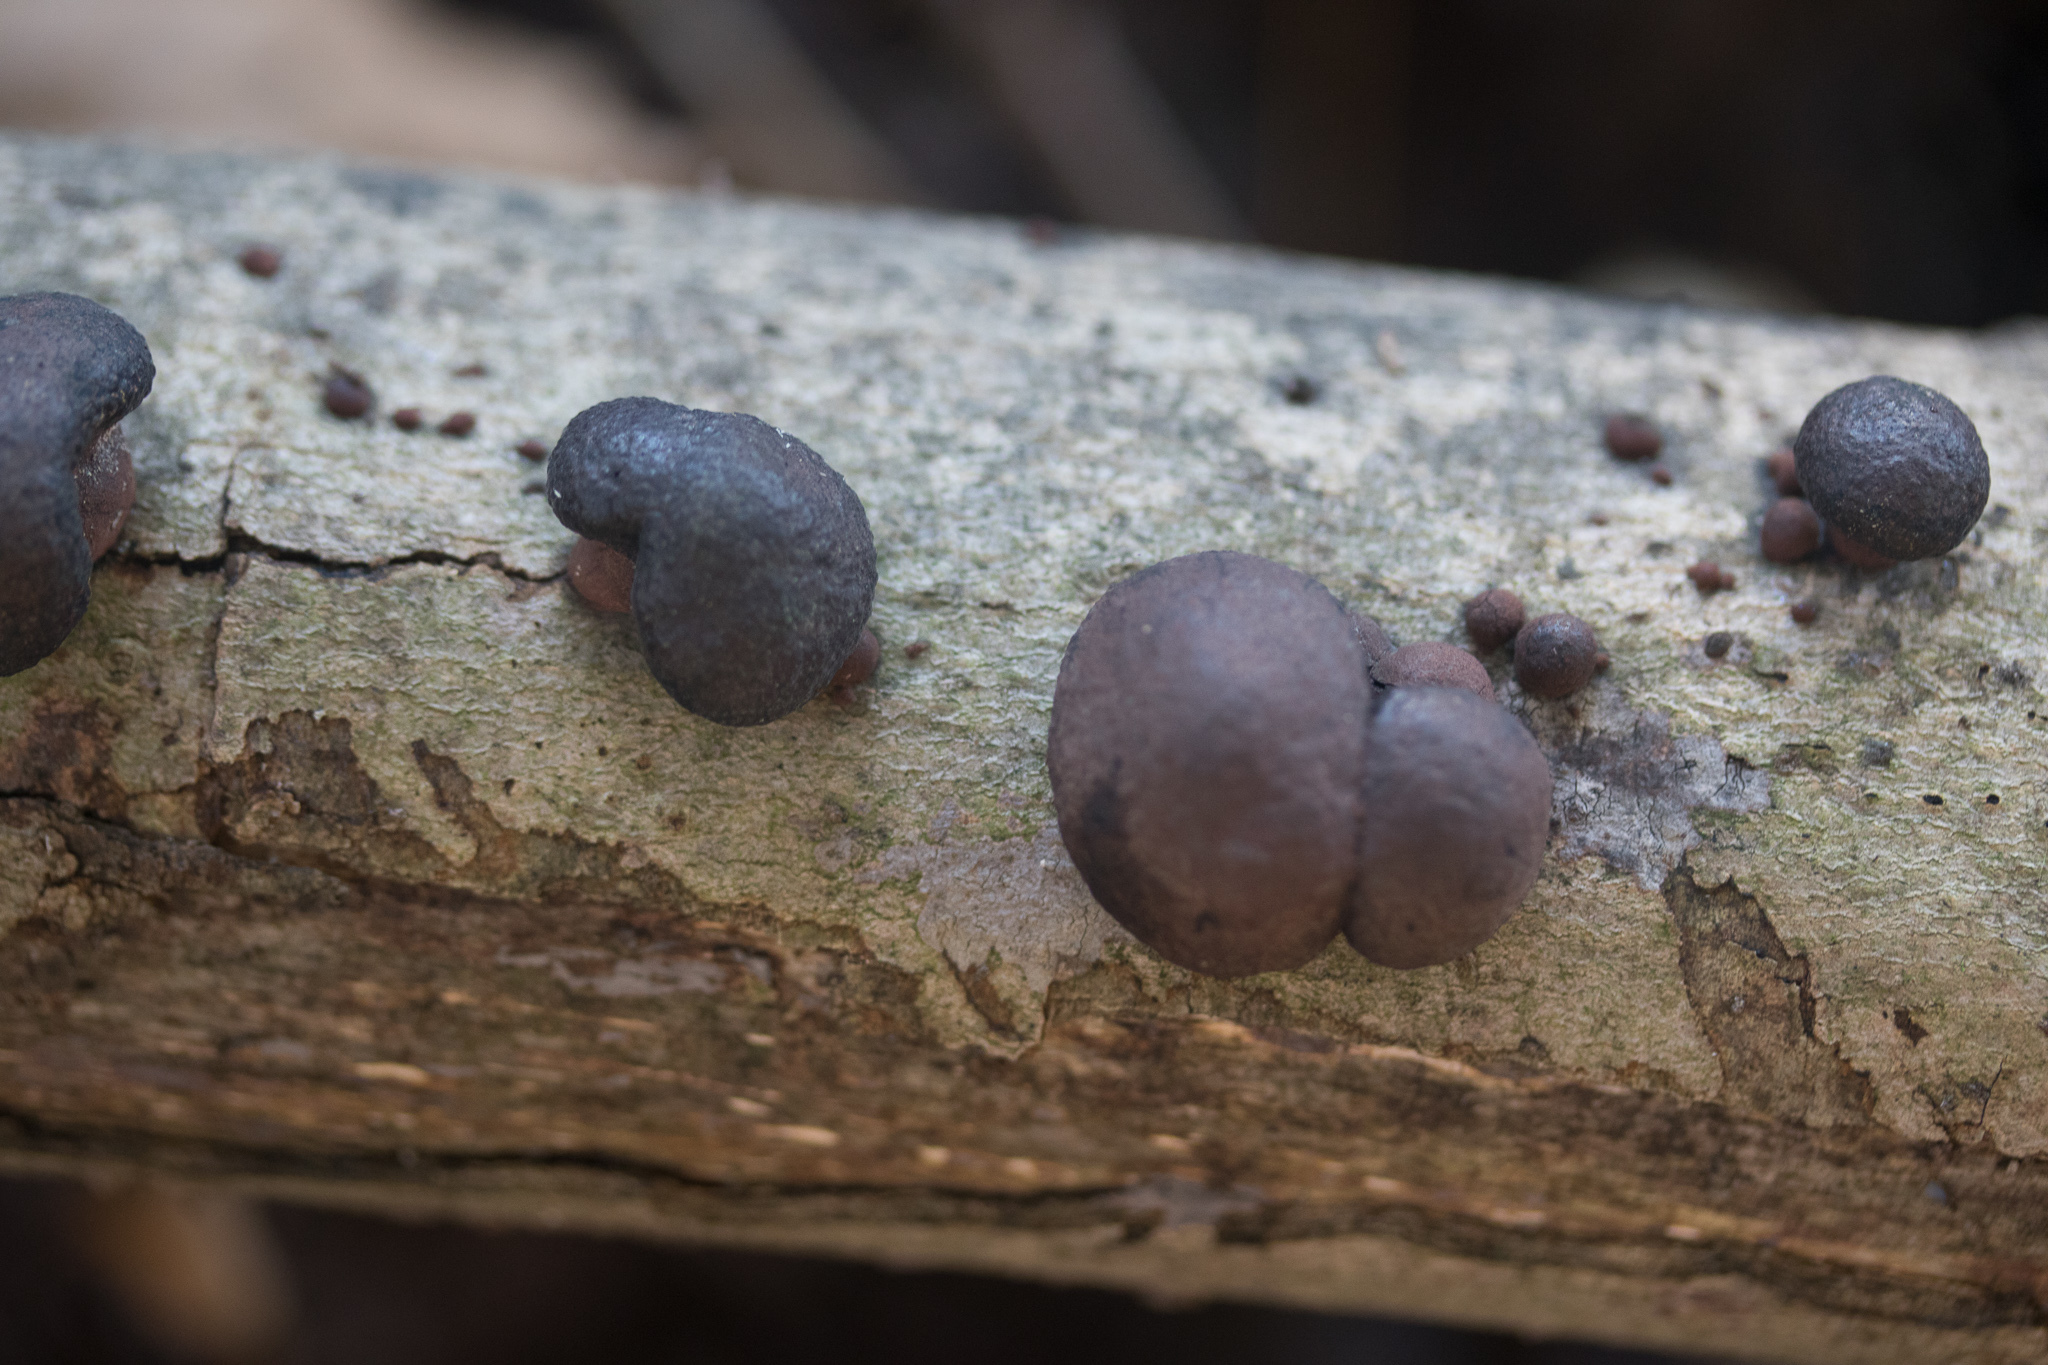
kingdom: Fungi
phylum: Ascomycota
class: Sordariomycetes
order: Xylariales
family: Hypoxylaceae
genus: Daldinia
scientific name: Daldinia childiae
